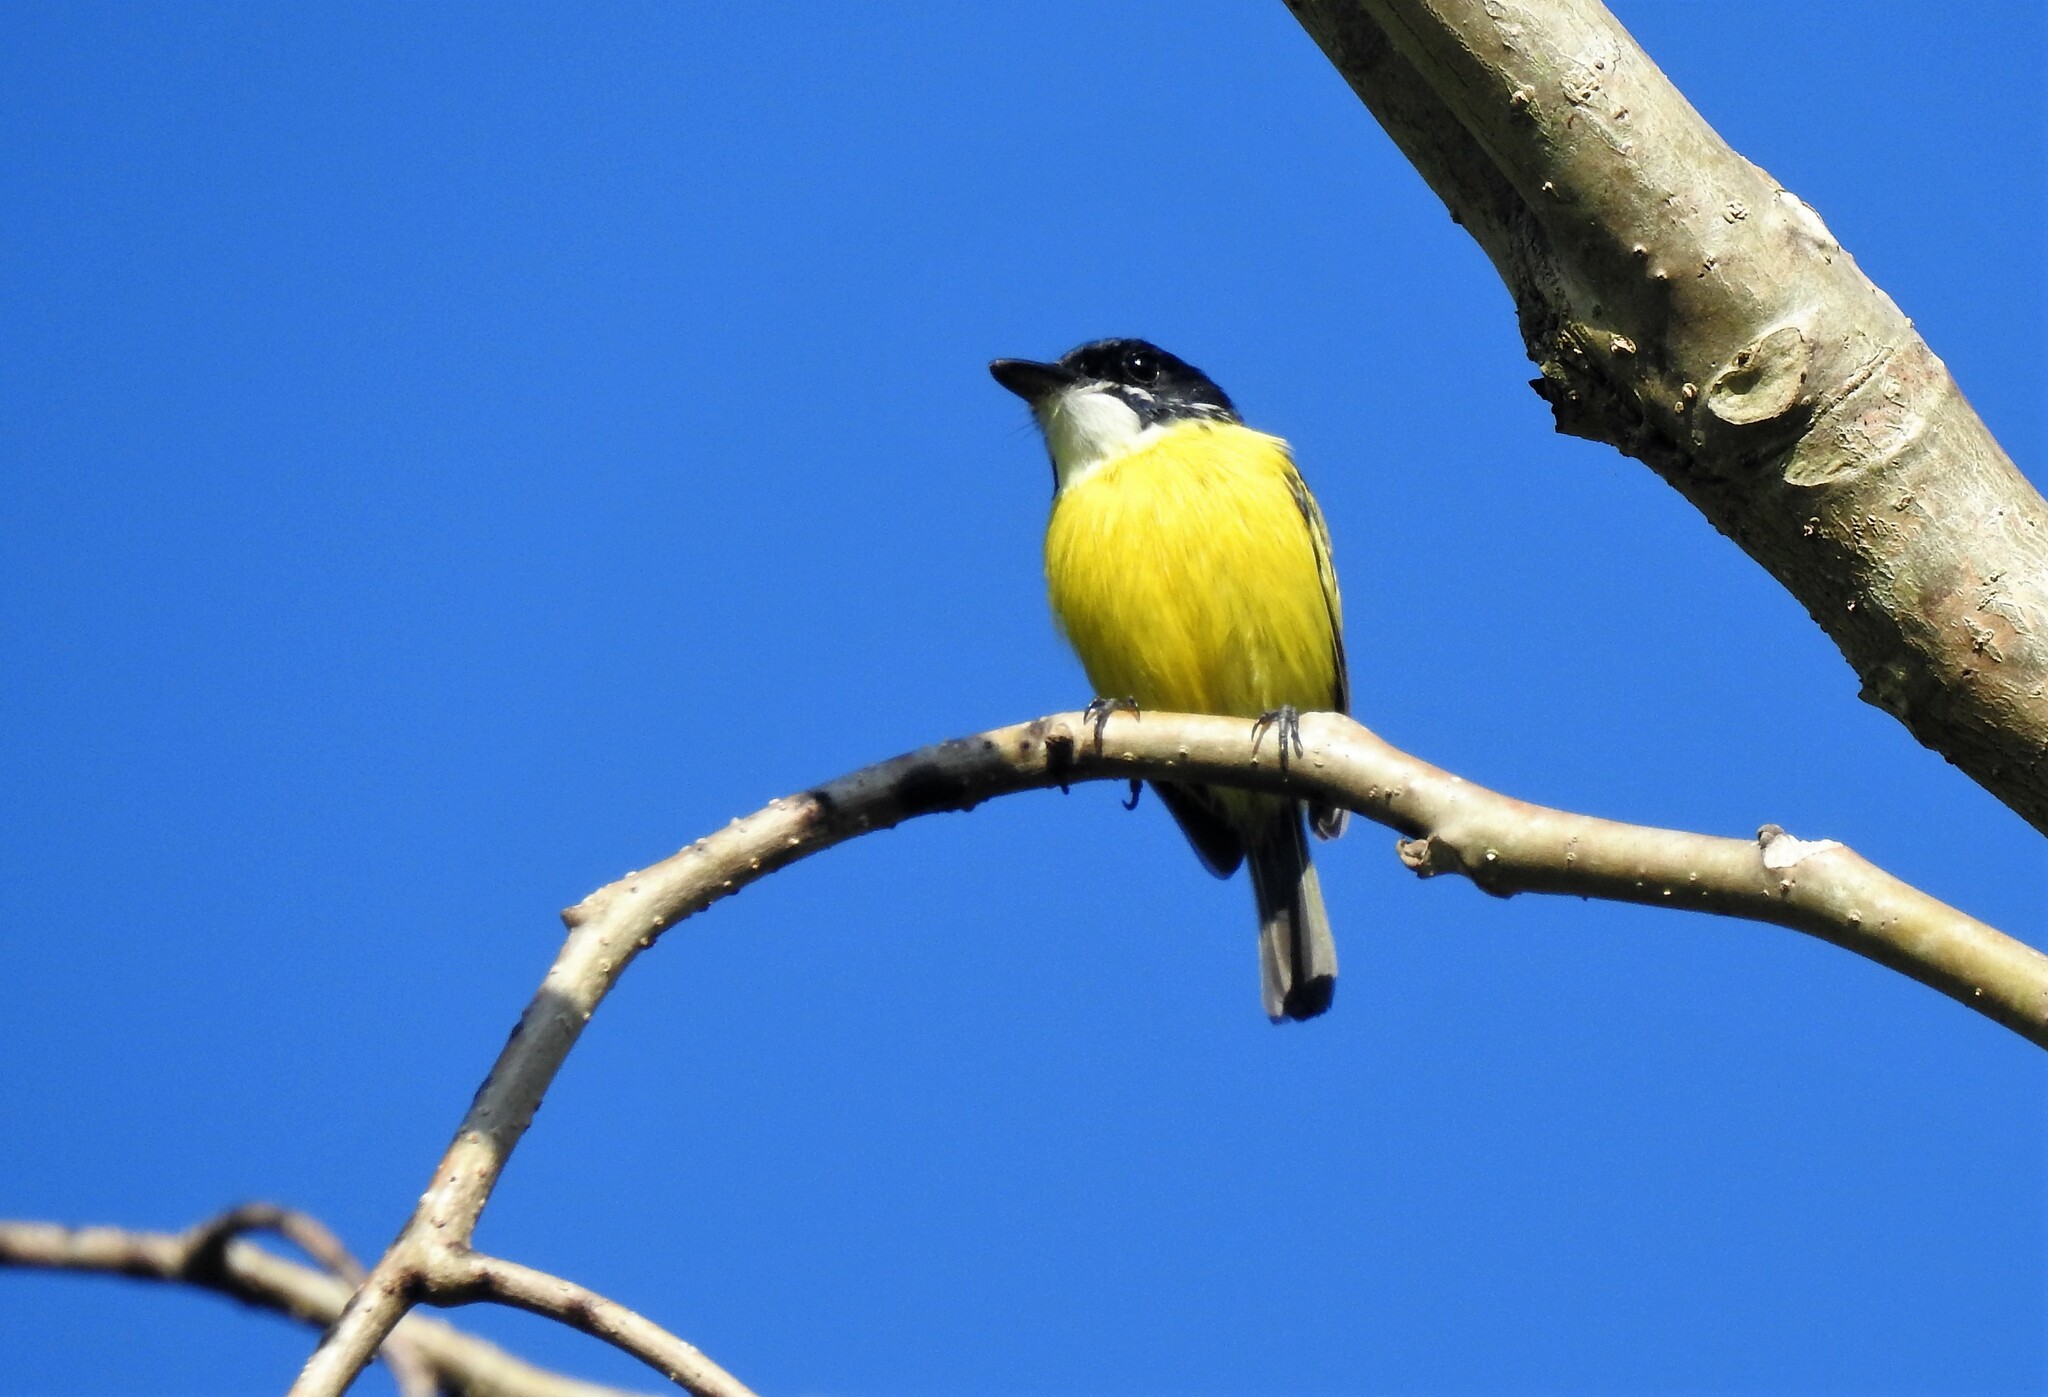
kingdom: Animalia
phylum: Chordata
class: Aves
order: Passeriformes
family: Tyrannidae
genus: Todirostrum
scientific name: Todirostrum nigriceps
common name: Black-headed tody-flycatcher
